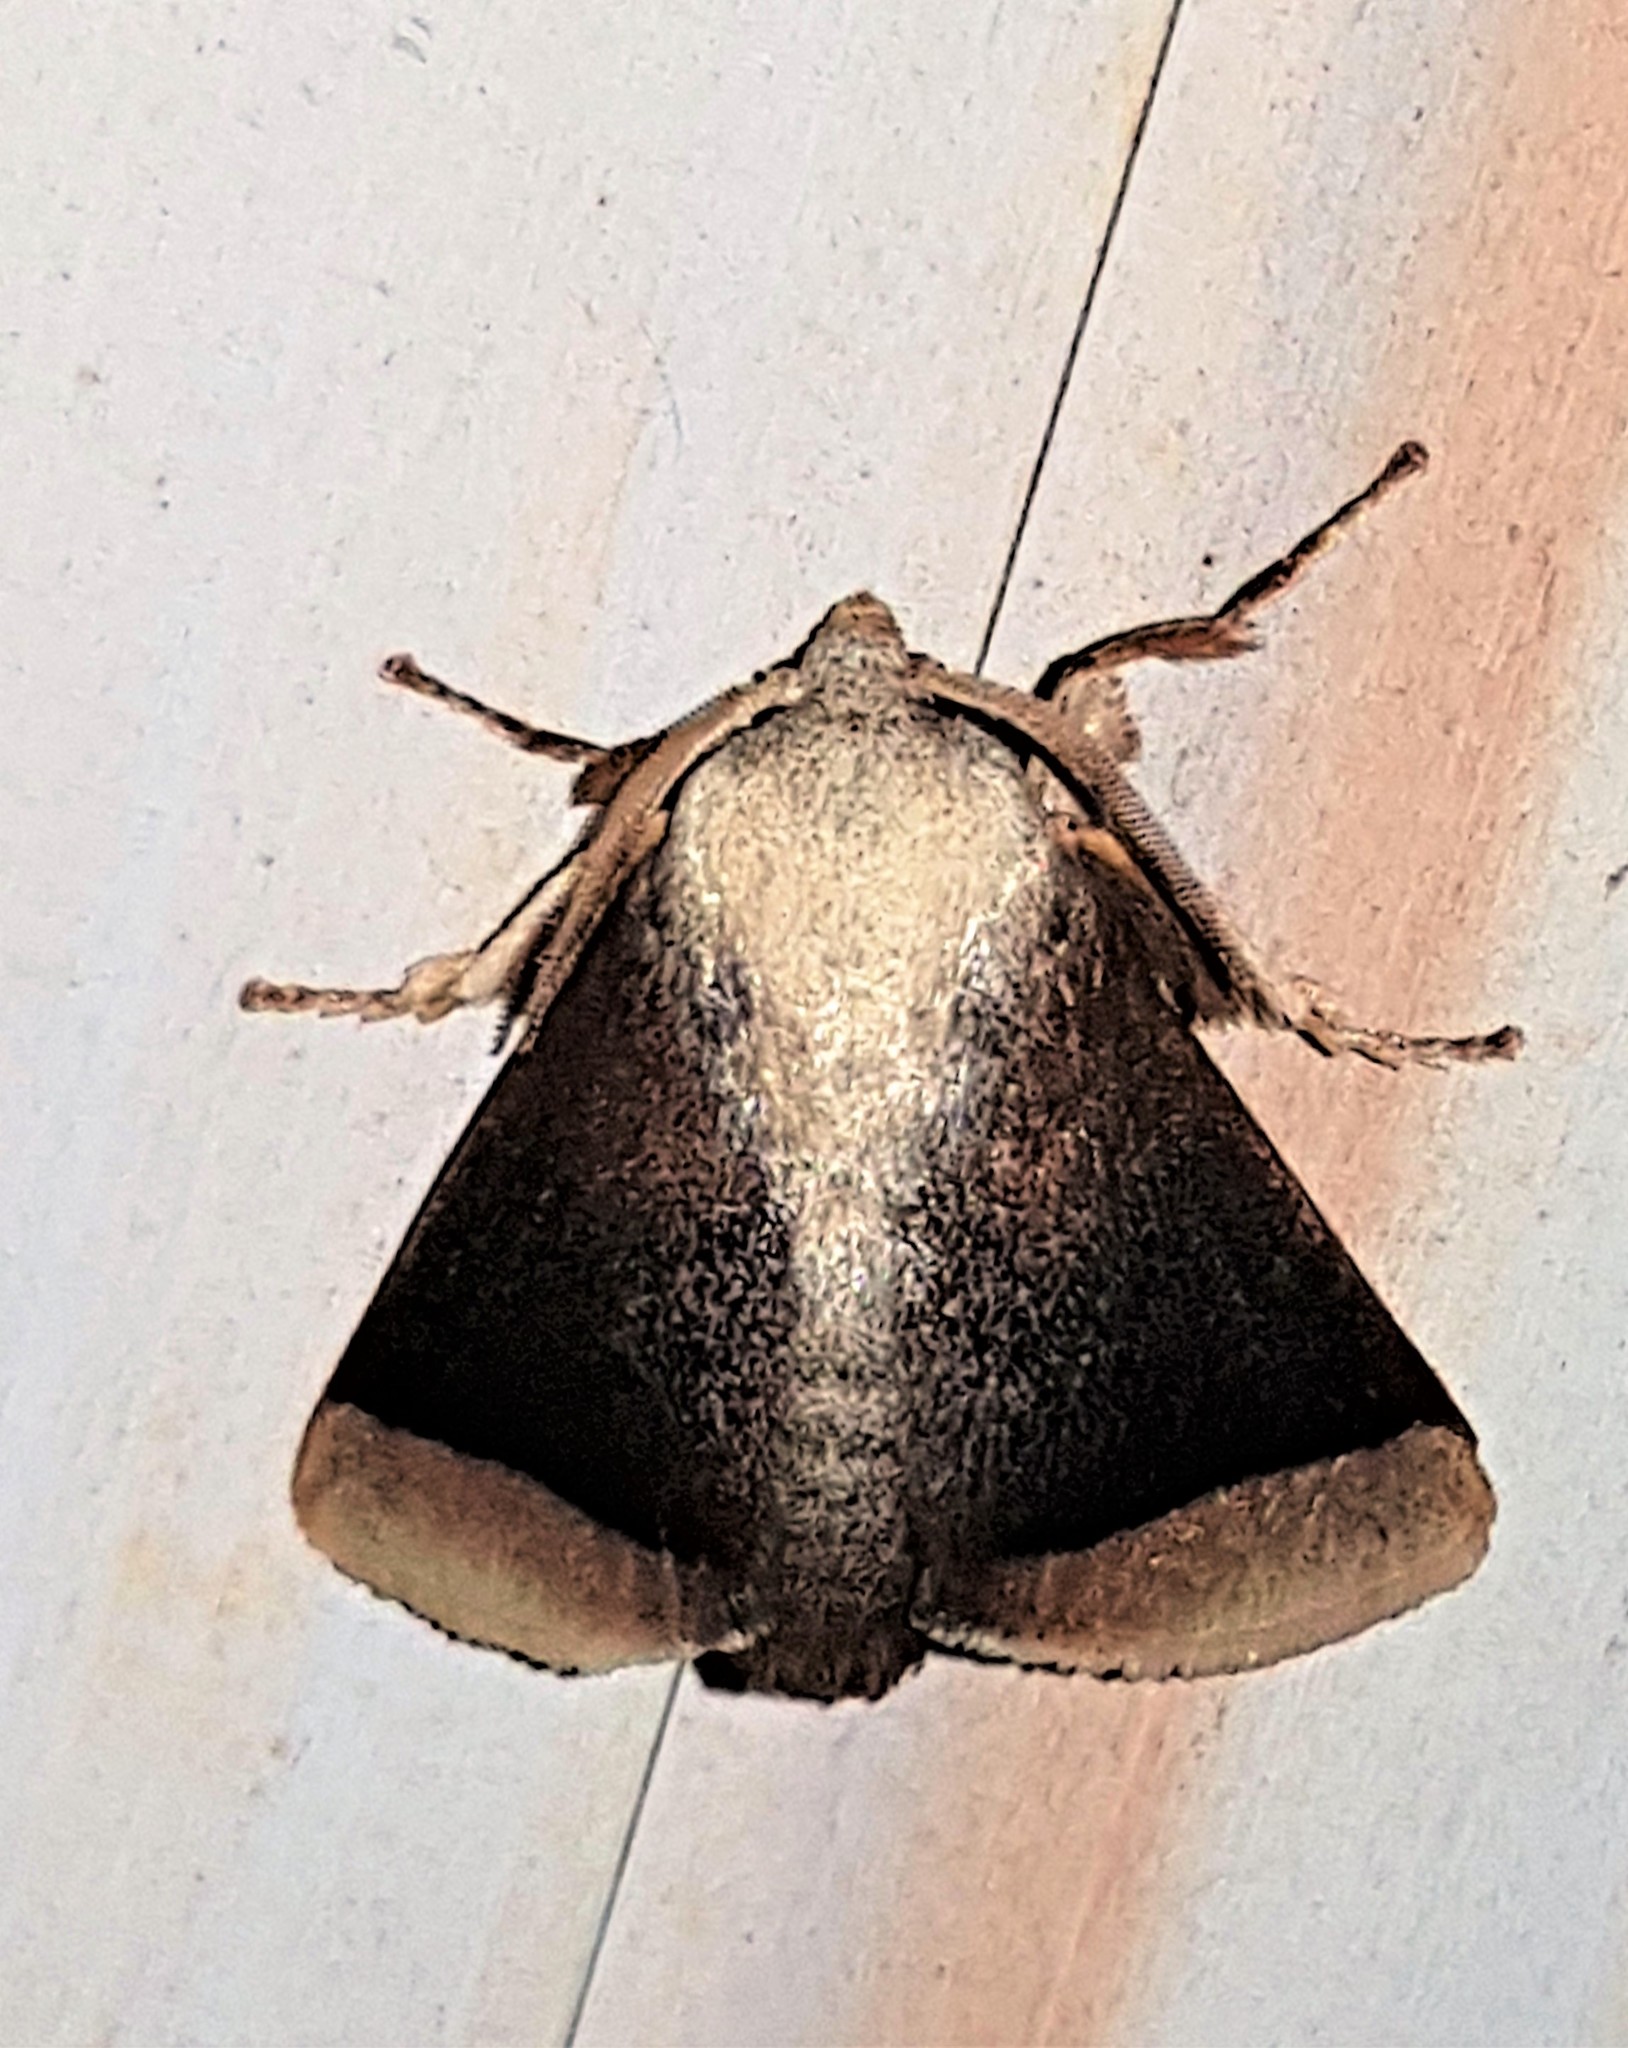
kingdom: Animalia
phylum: Arthropoda
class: Insecta
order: Lepidoptera
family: Limacodidae
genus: Natada
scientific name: Natada simois
